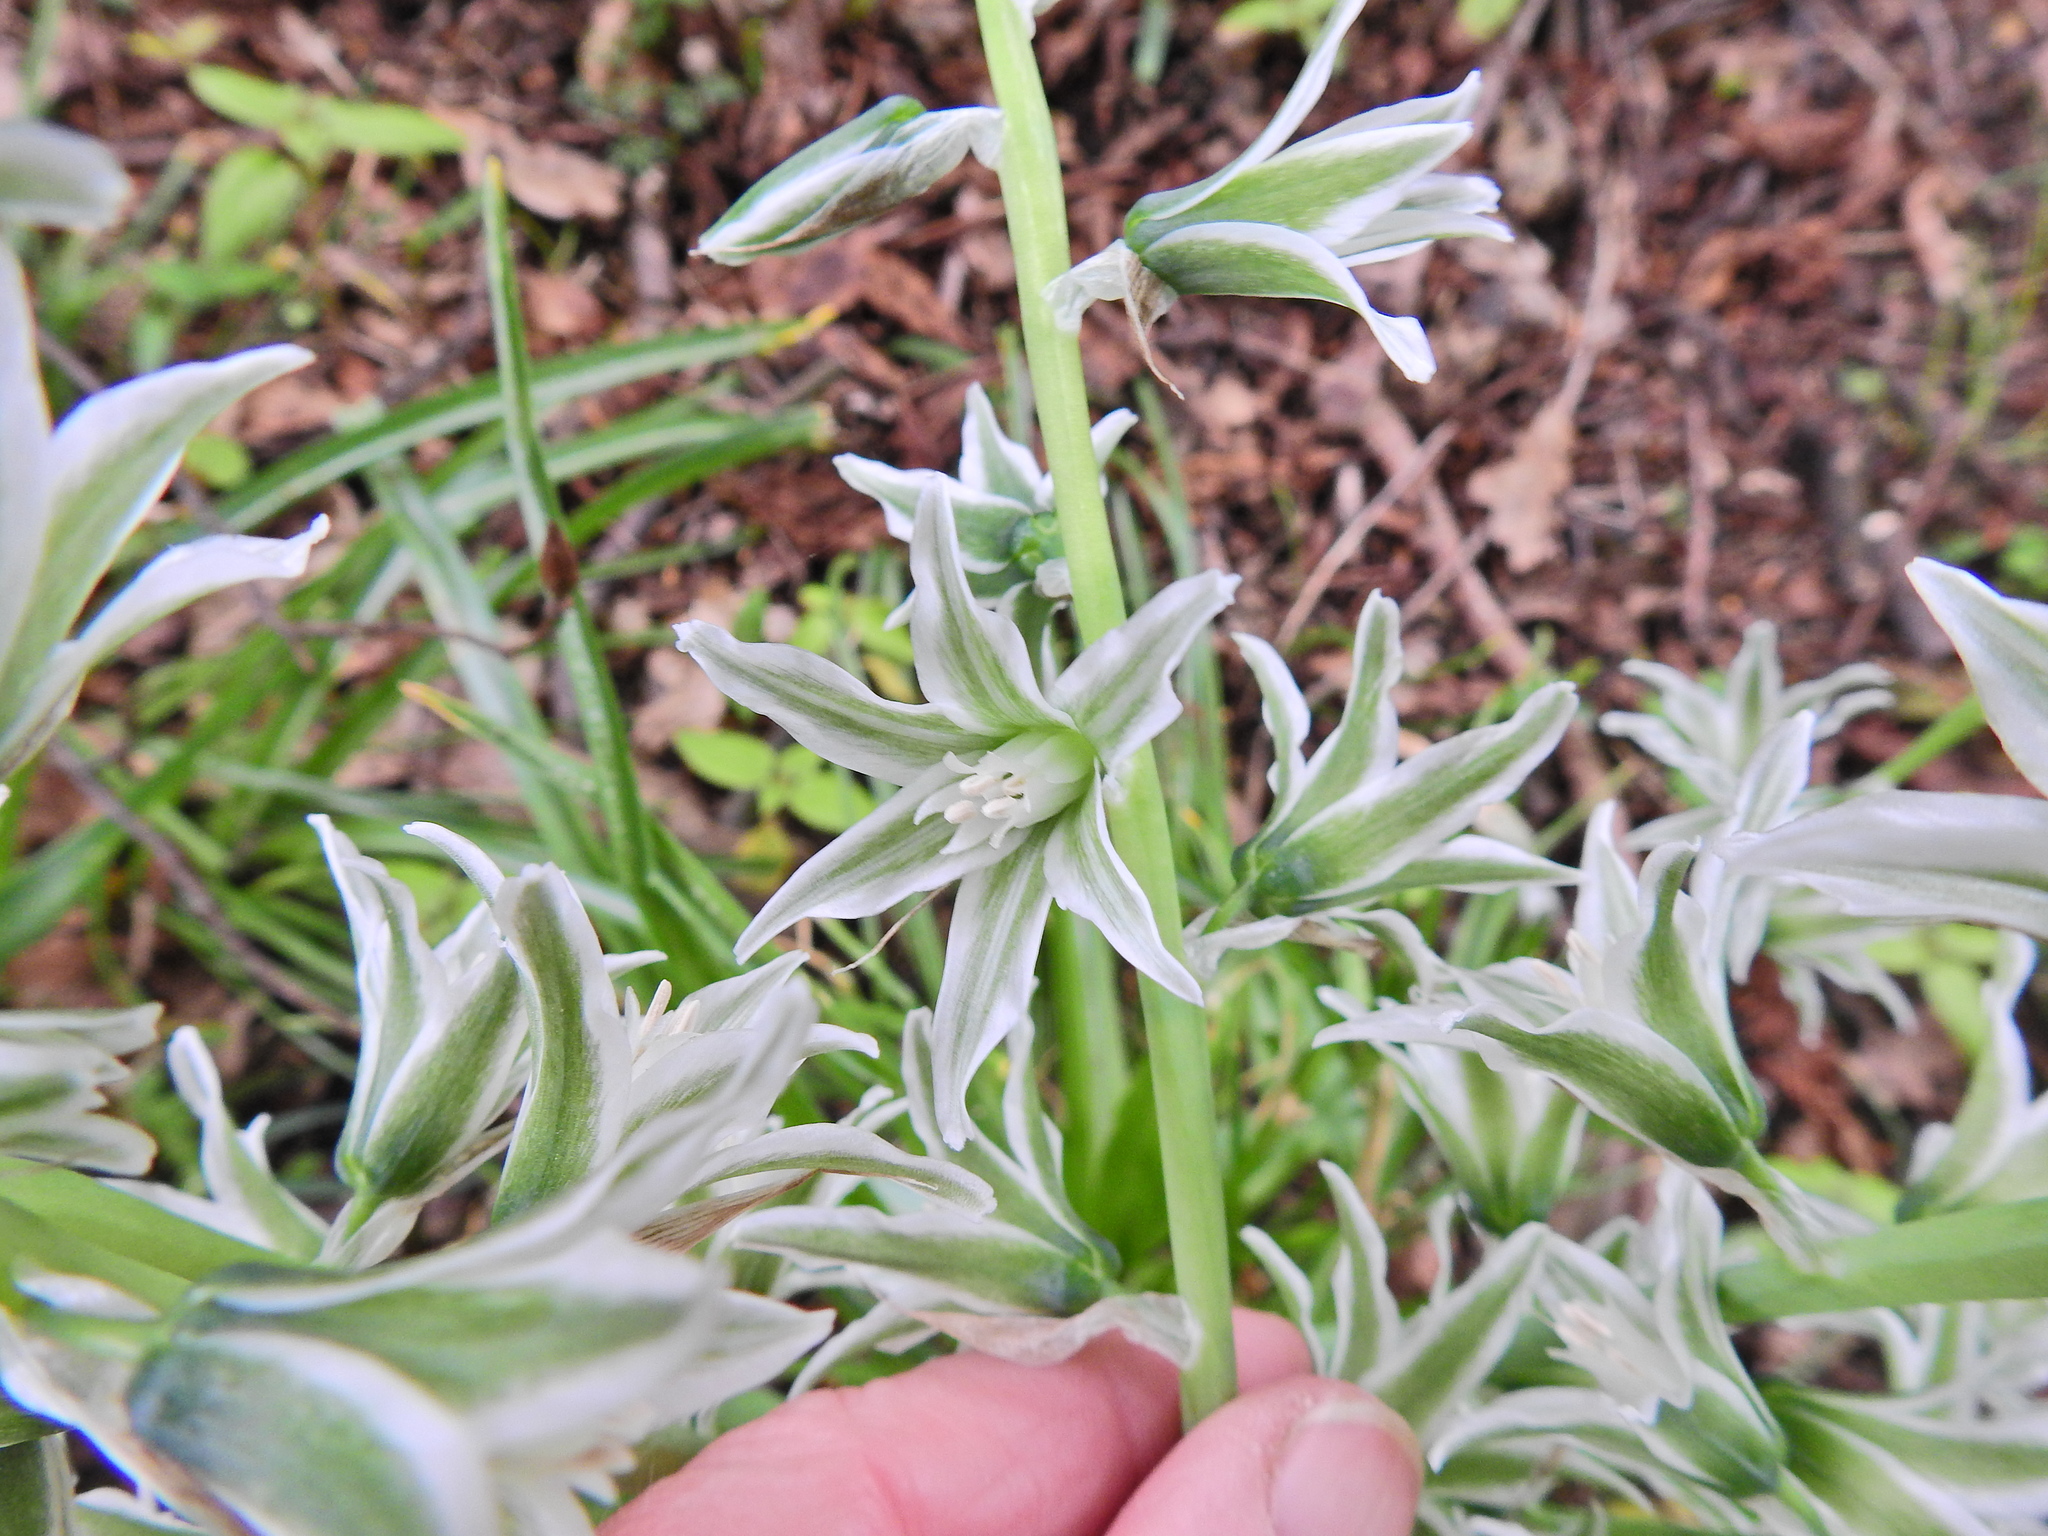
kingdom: Plantae
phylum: Tracheophyta
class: Liliopsida
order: Asparagales
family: Asparagaceae
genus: Ornithogalum
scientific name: Ornithogalum nutans
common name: Drooping star-of-bethlehem
